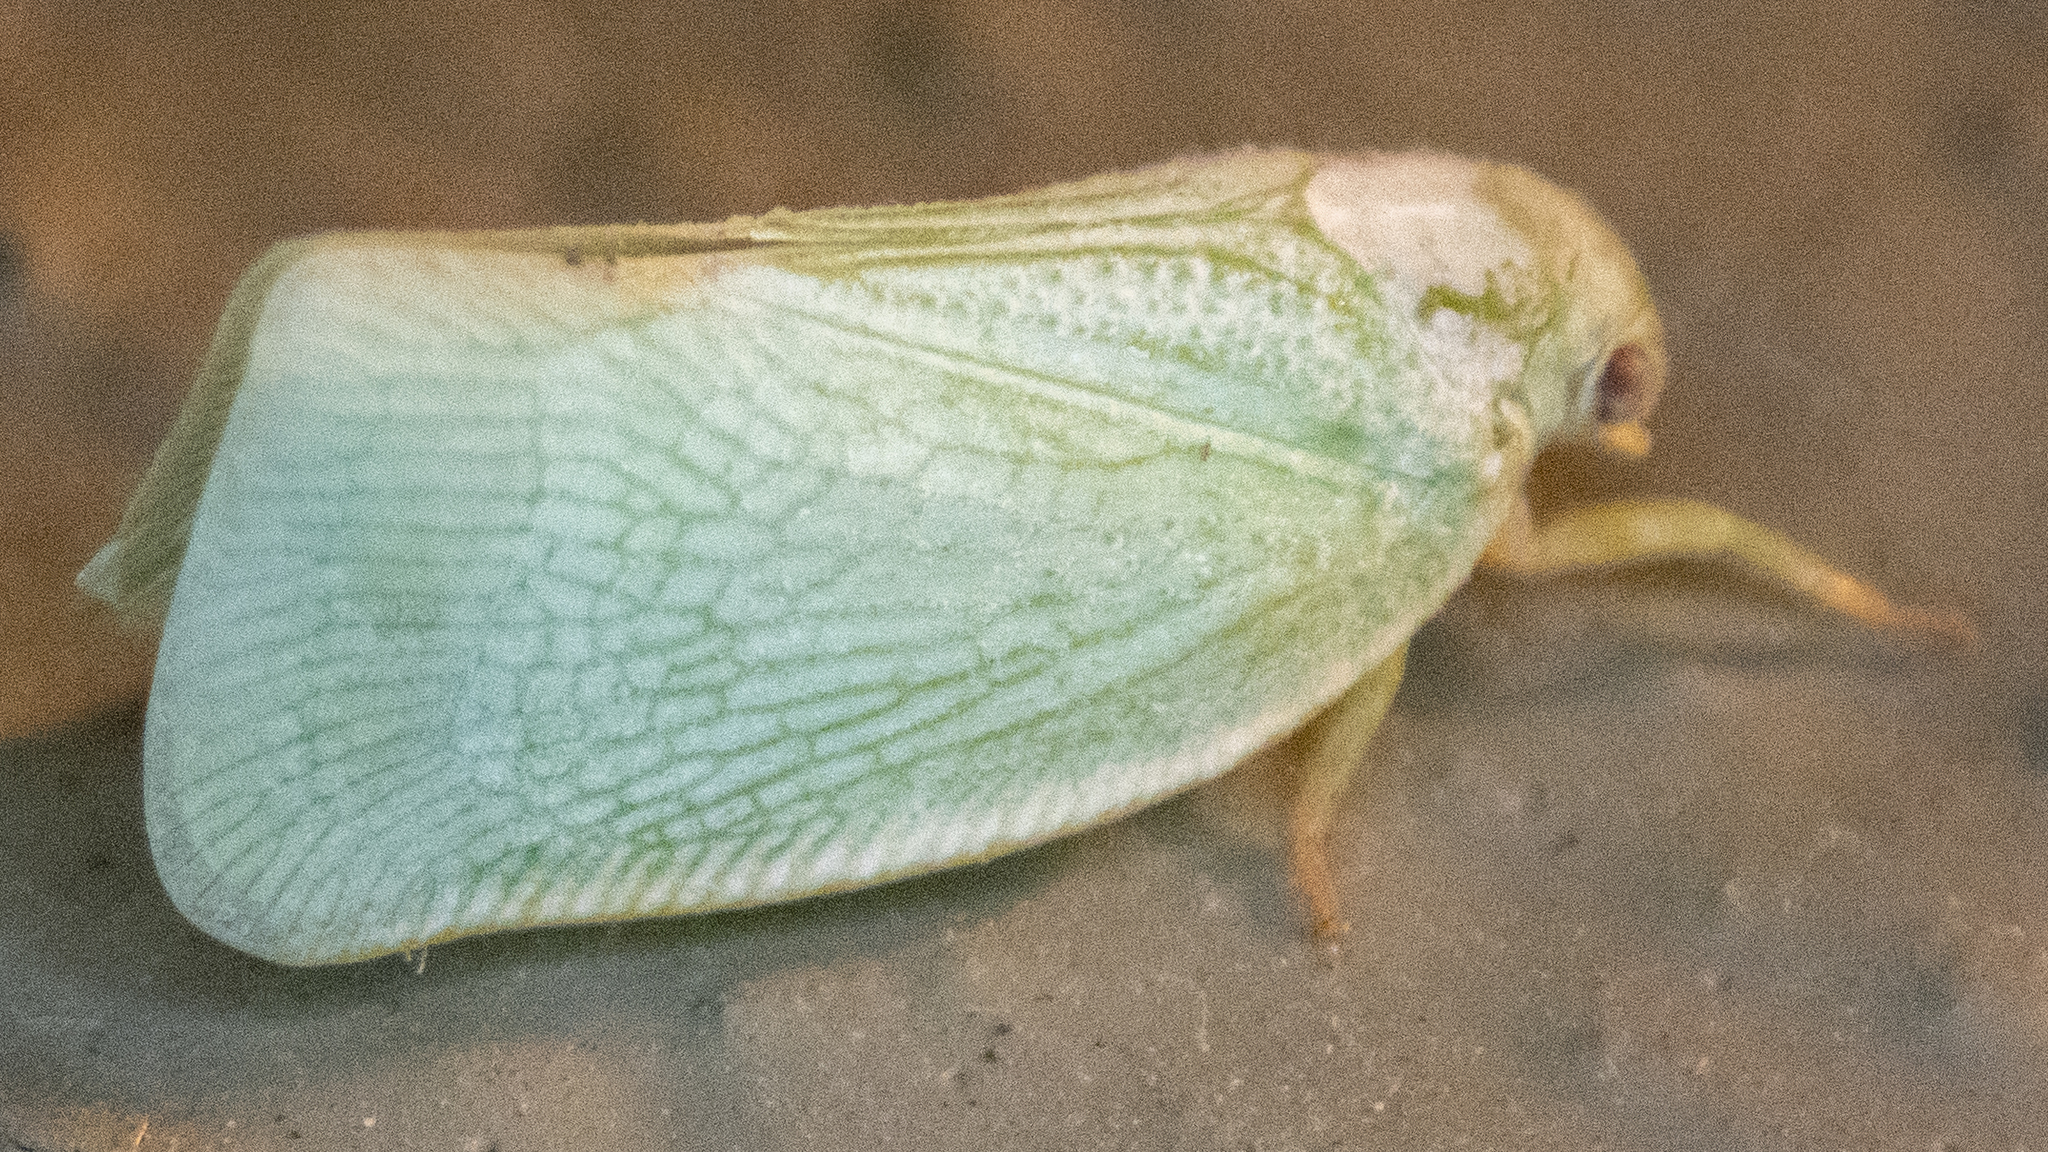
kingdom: Animalia
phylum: Arthropoda
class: Insecta
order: Hemiptera
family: Flatidae
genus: Flatormenis
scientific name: Flatormenis proxima
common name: Northern flatid planthopper
